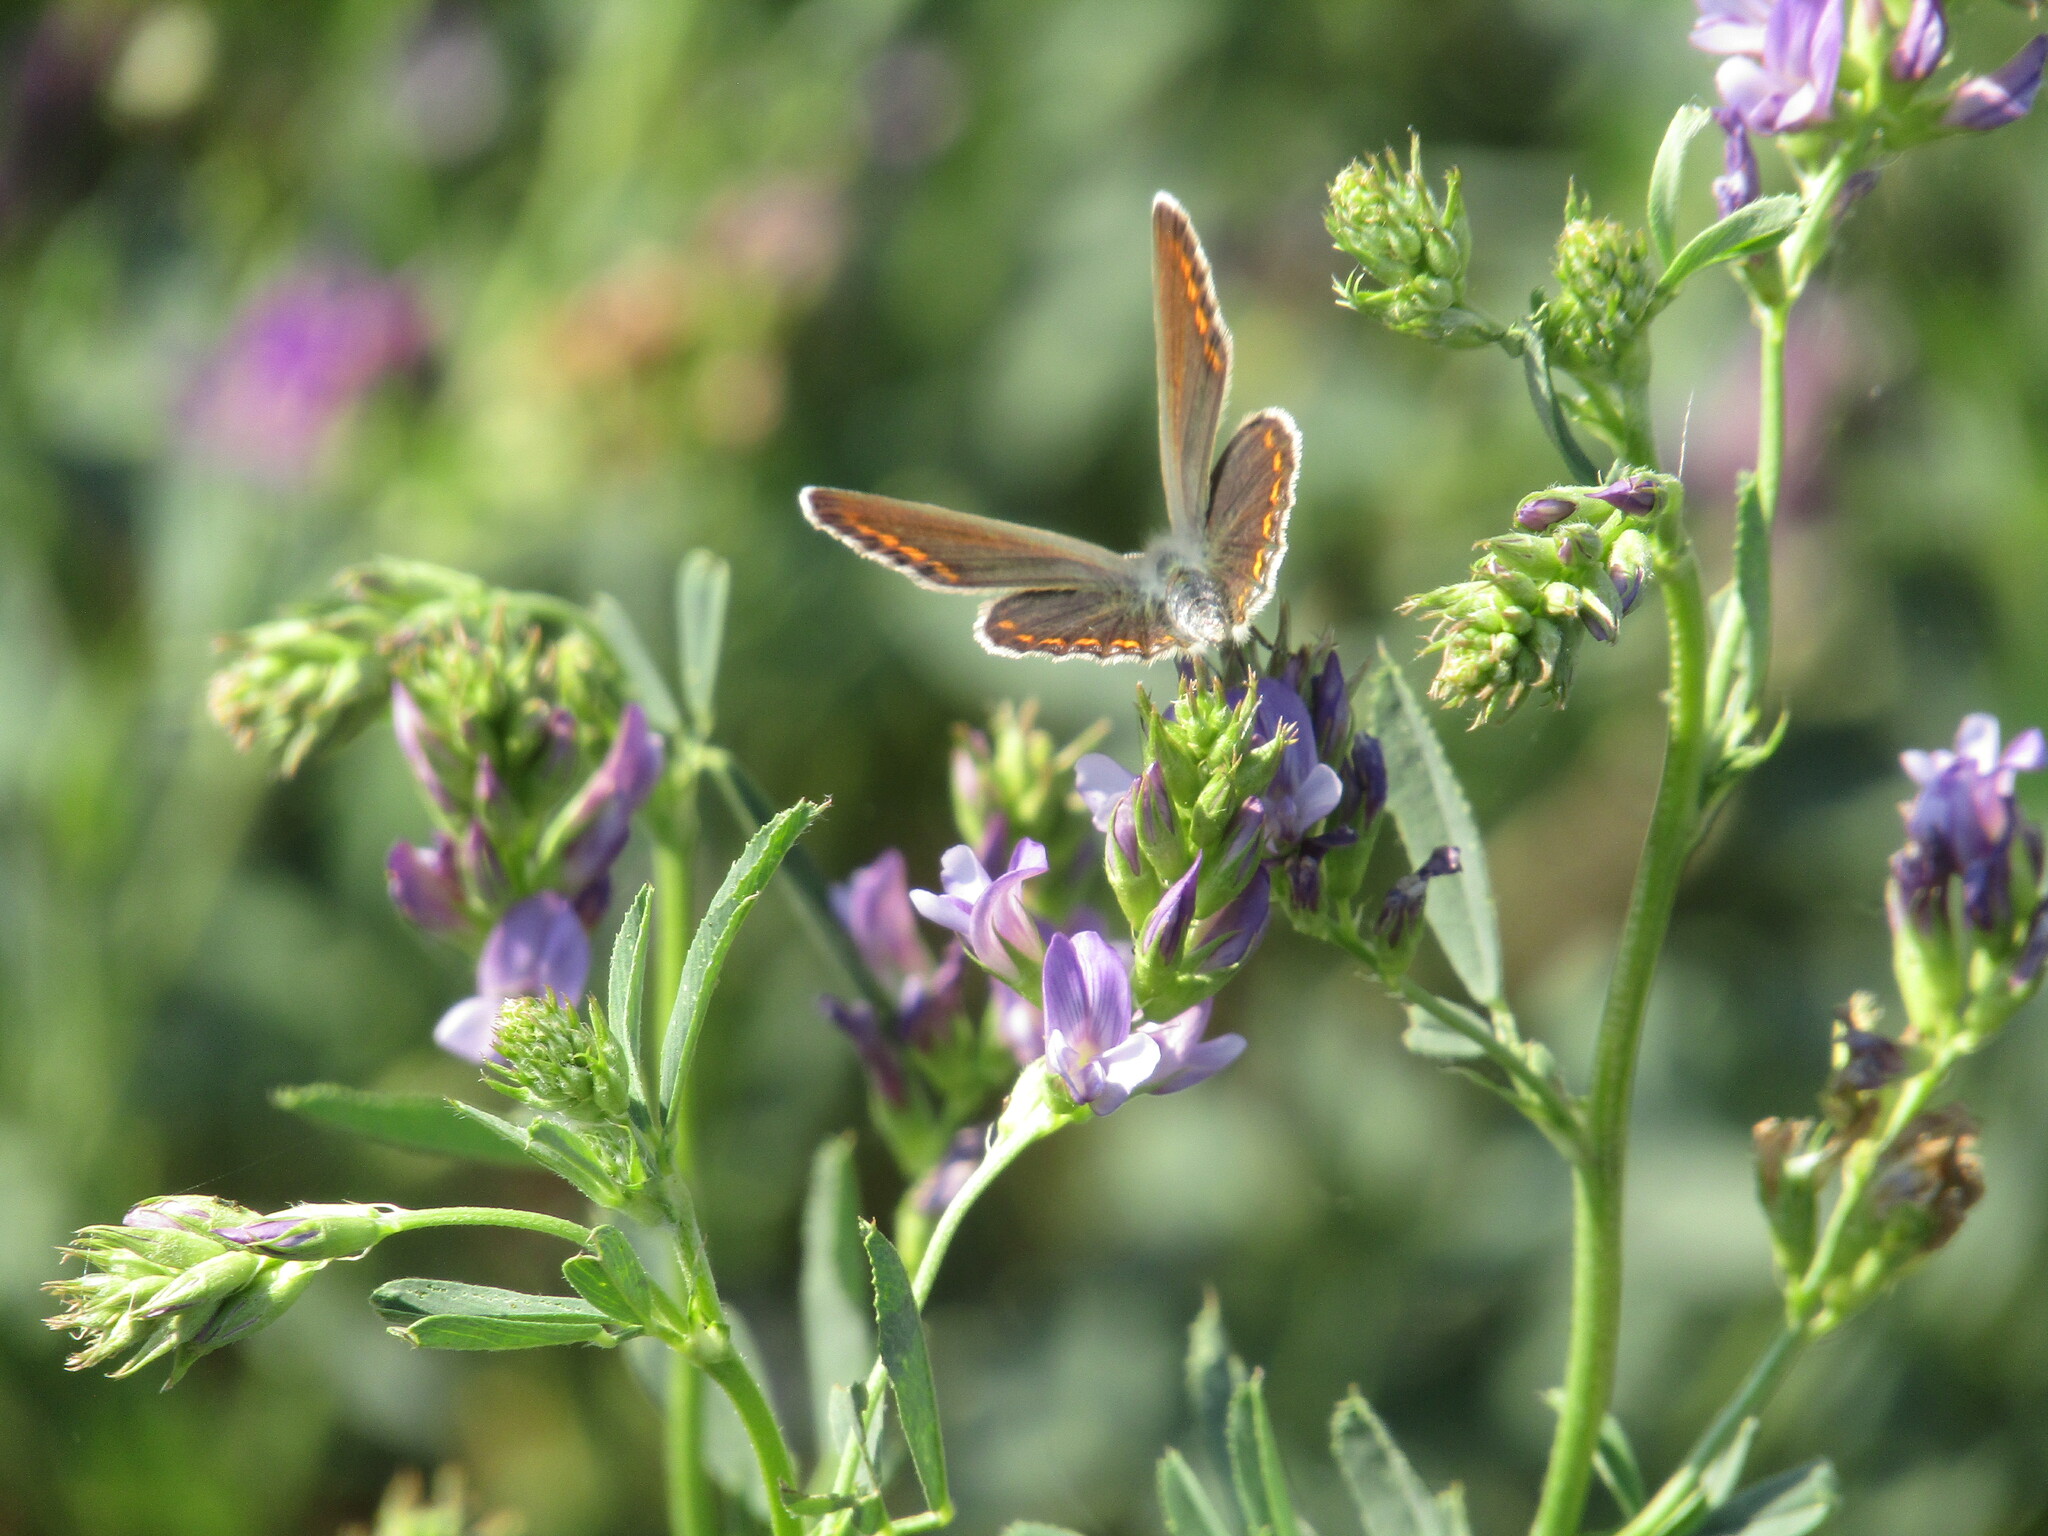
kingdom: Animalia
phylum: Arthropoda
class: Insecta
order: Lepidoptera
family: Lycaenidae
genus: Polyommatus
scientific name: Polyommatus
